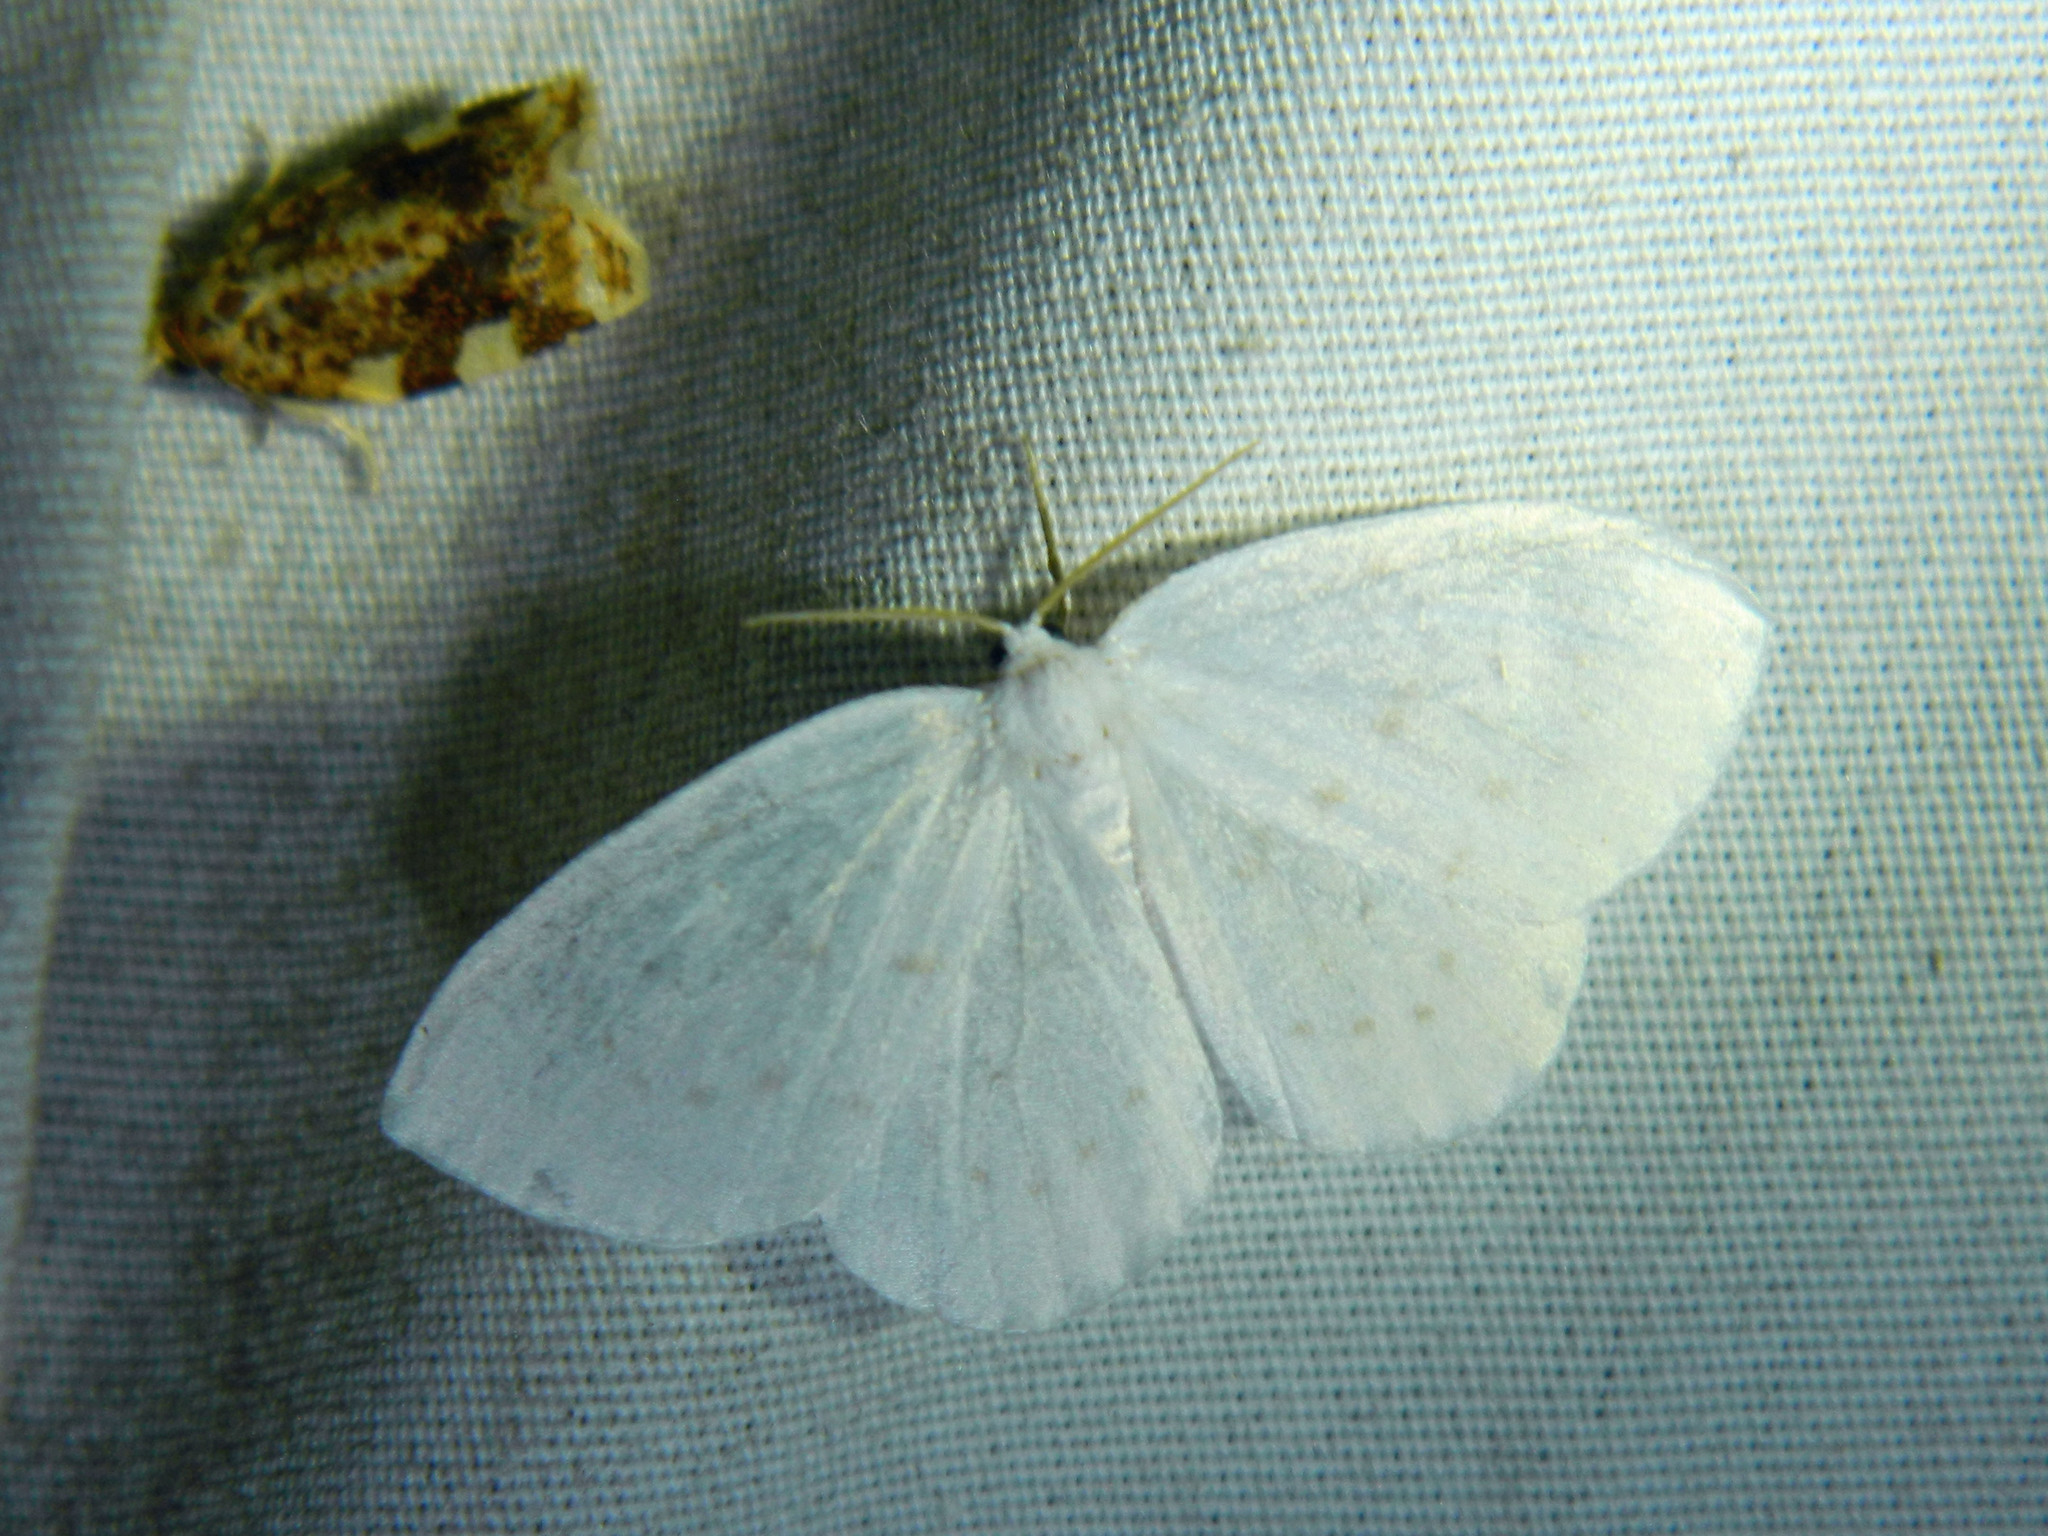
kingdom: Animalia
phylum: Arthropoda
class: Insecta
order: Lepidoptera
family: Drepanidae
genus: Eudeilinia
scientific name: Eudeilinia herminiata
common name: Northern eudeilinea moth
